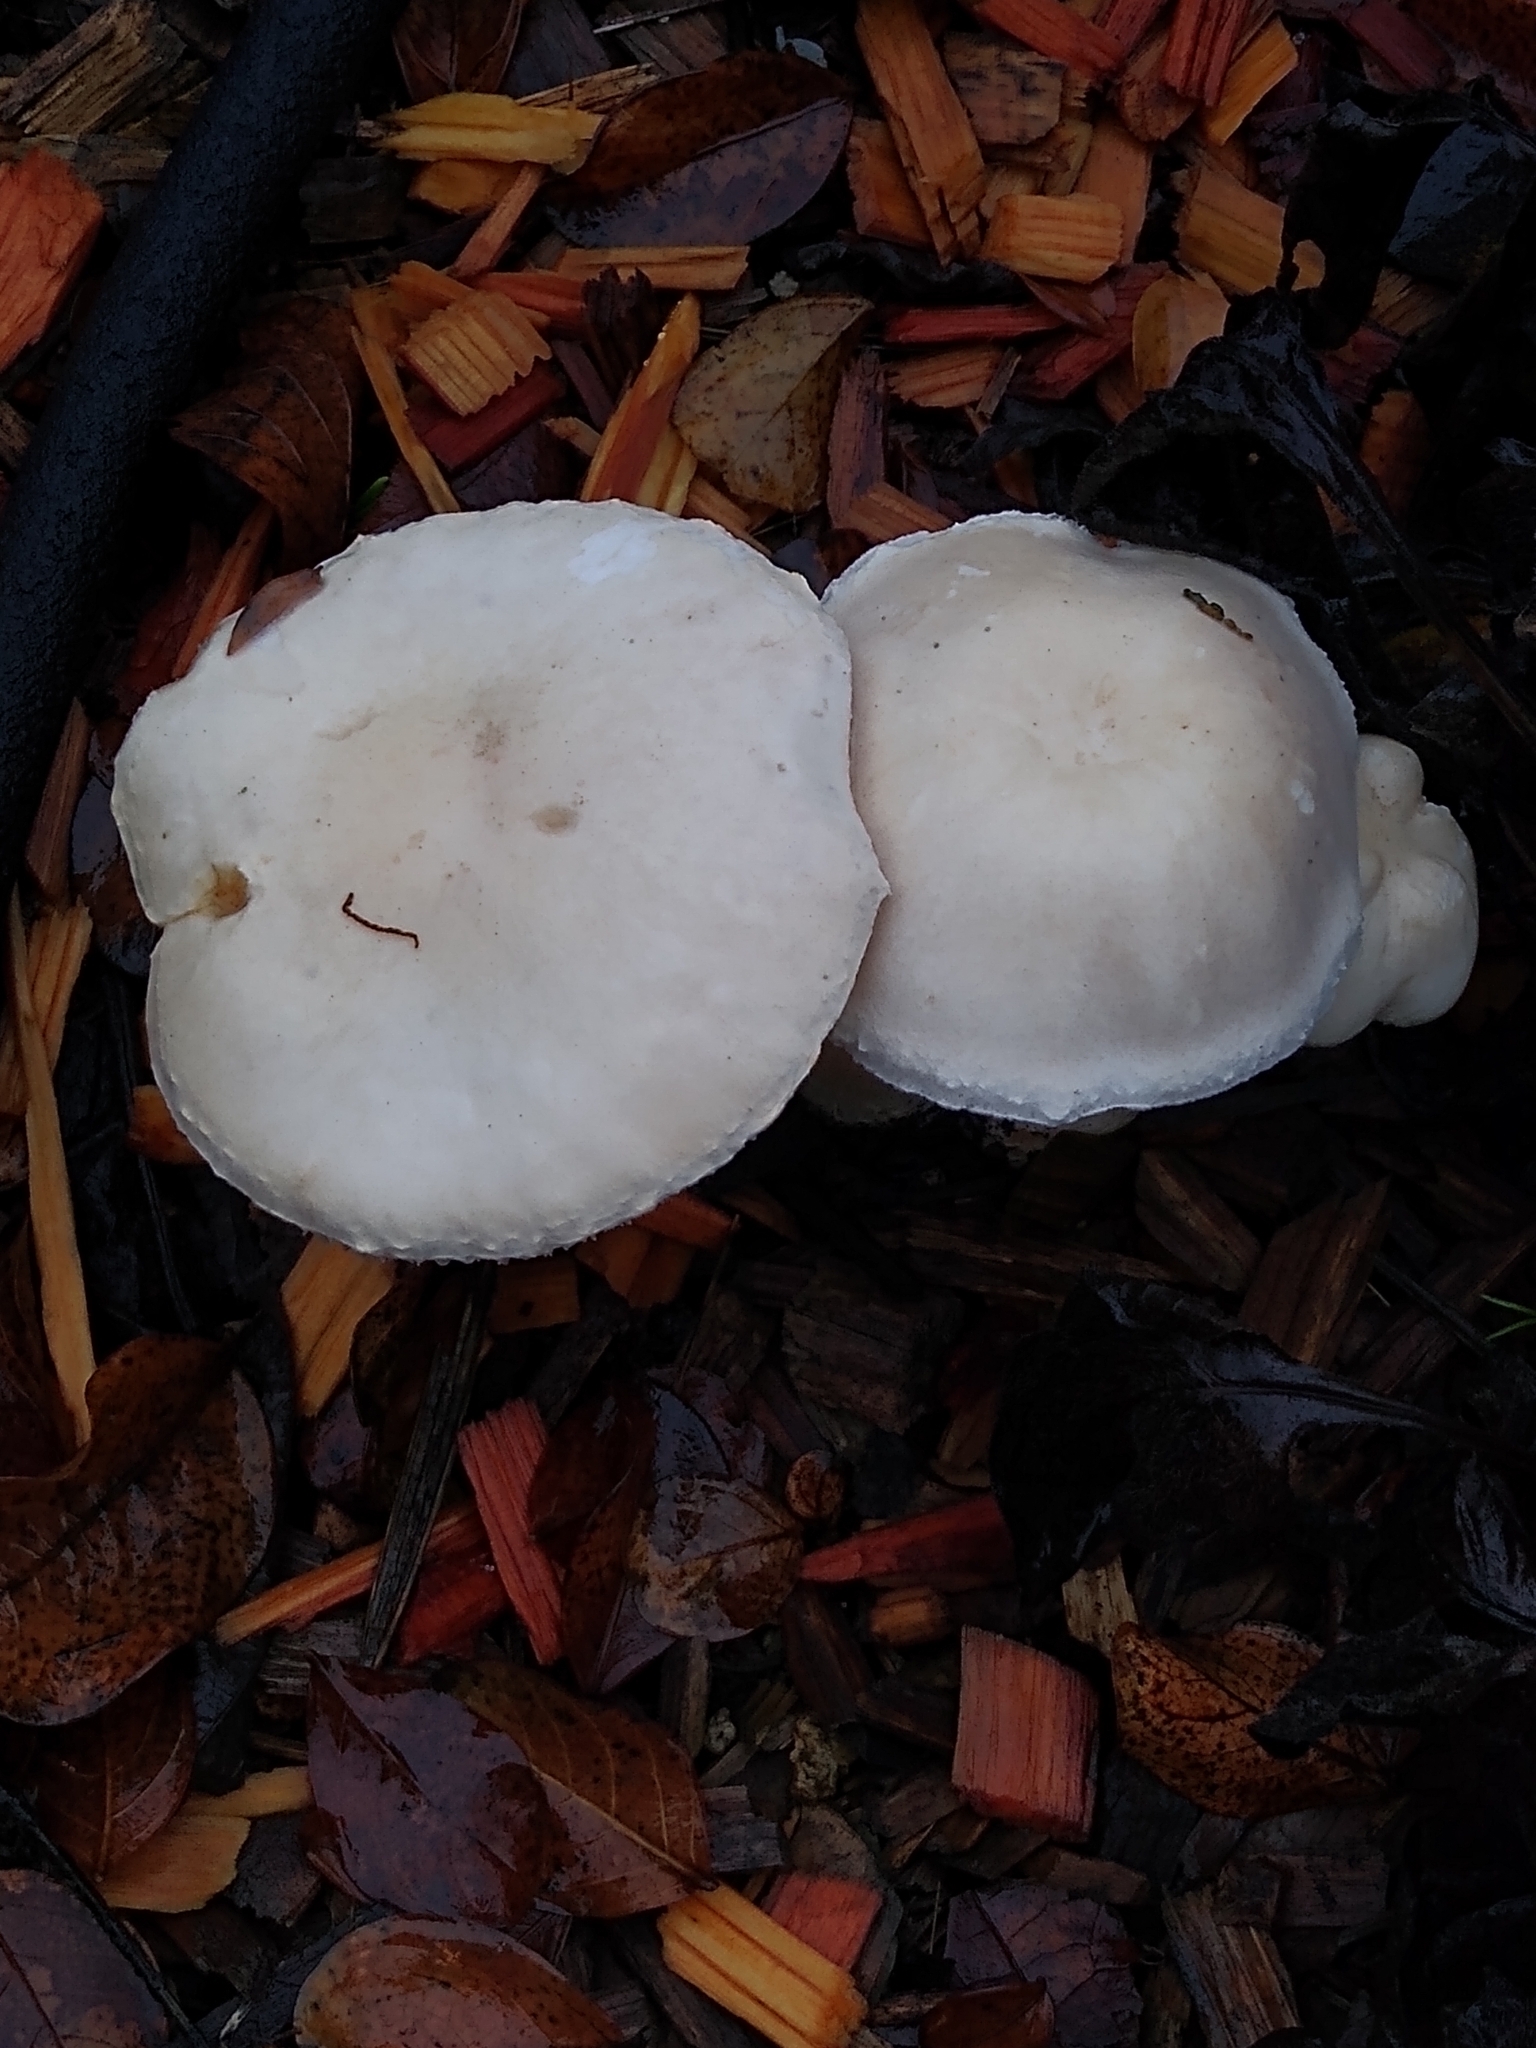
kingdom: Fungi
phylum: Basidiomycota
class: Agaricomycetes
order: Agaricales
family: Agaricaceae
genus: Leucoagaricus
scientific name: Leucoagaricus leucothites
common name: White dapperling
